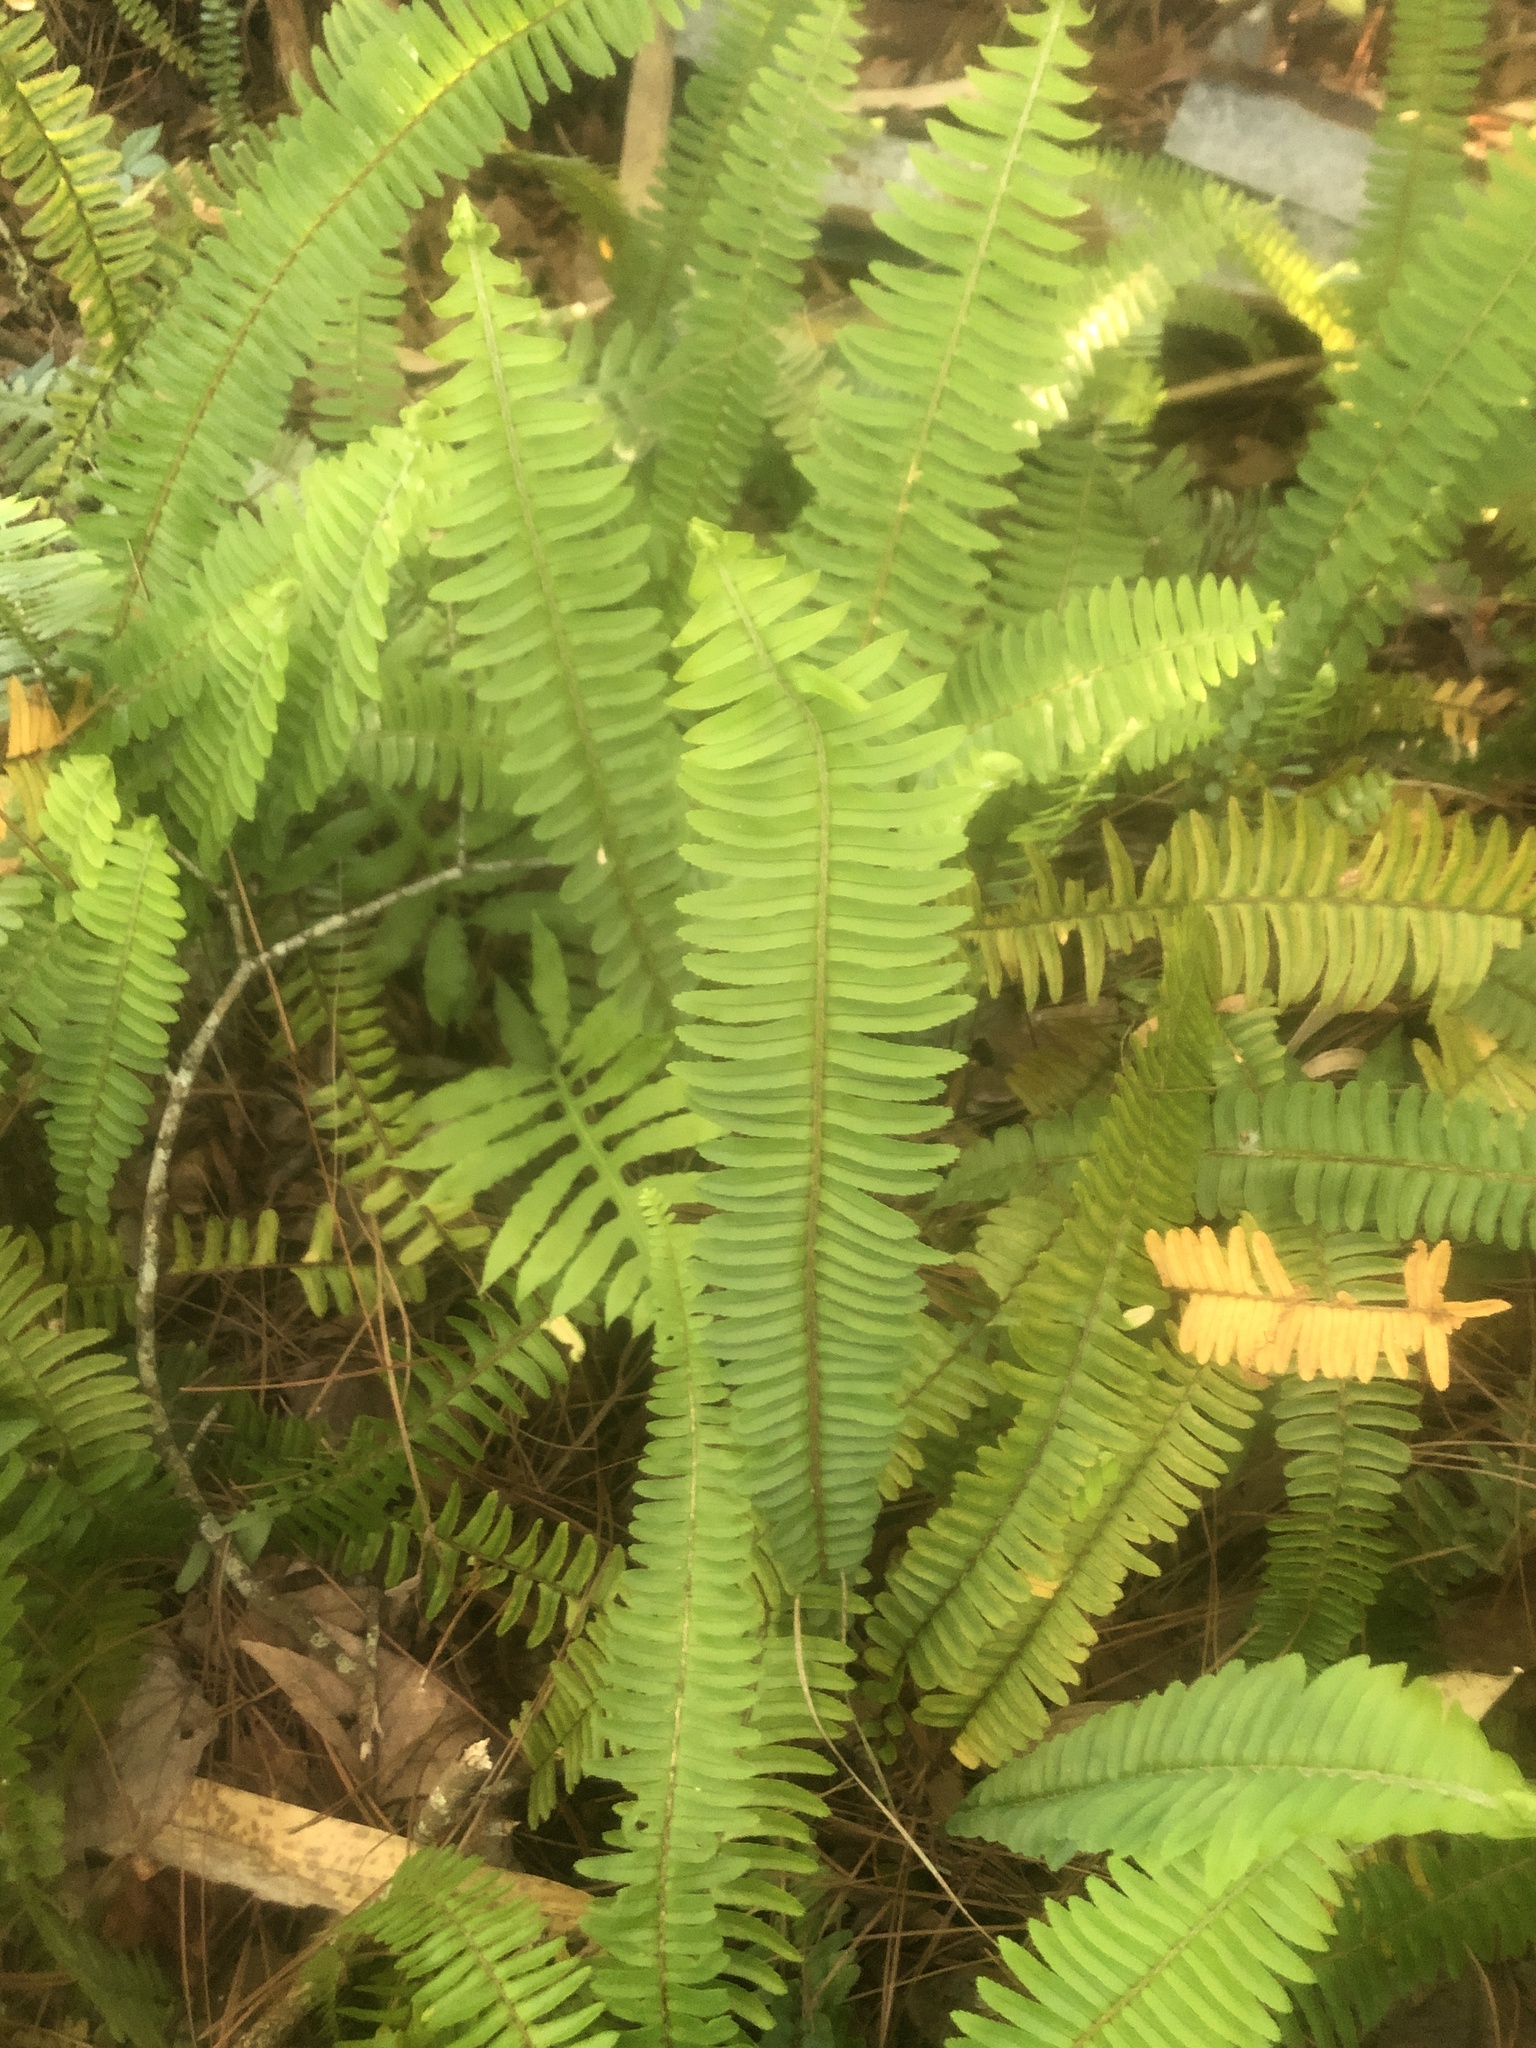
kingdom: Plantae
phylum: Tracheophyta
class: Polypodiopsida
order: Polypodiales
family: Nephrolepidaceae
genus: Nephrolepis
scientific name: Nephrolepis cordifolia
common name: Narrow swordfern
